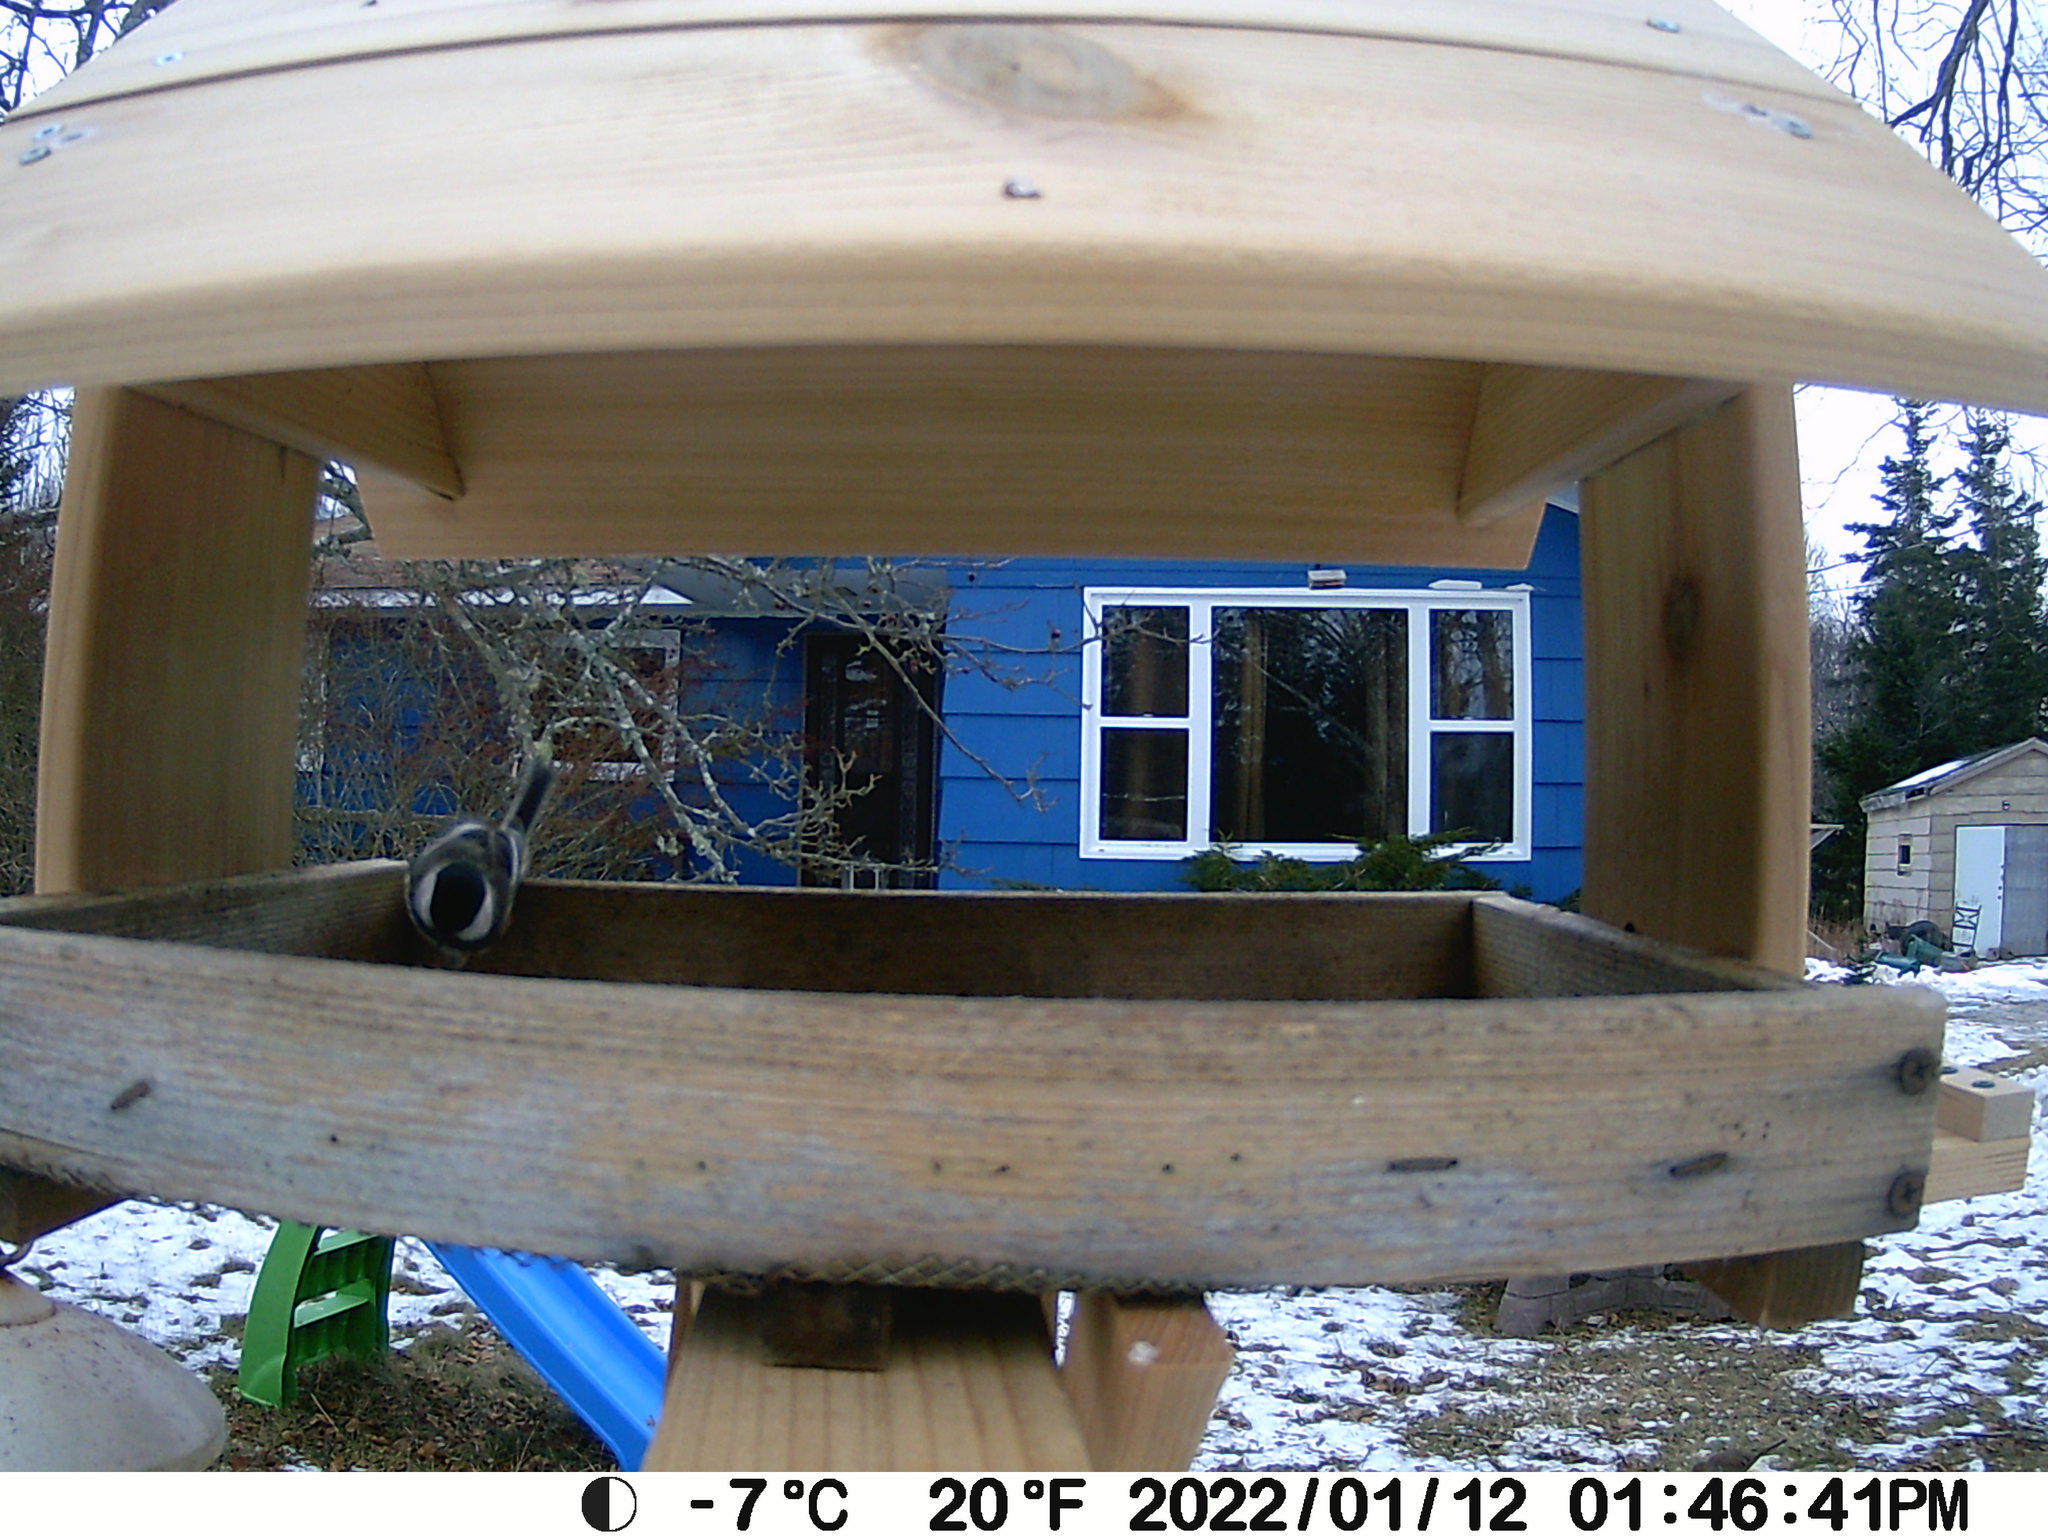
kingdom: Animalia
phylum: Chordata
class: Aves
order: Columbiformes
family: Columbidae
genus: Zenaida
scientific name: Zenaida macroura
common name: Mourning dove
